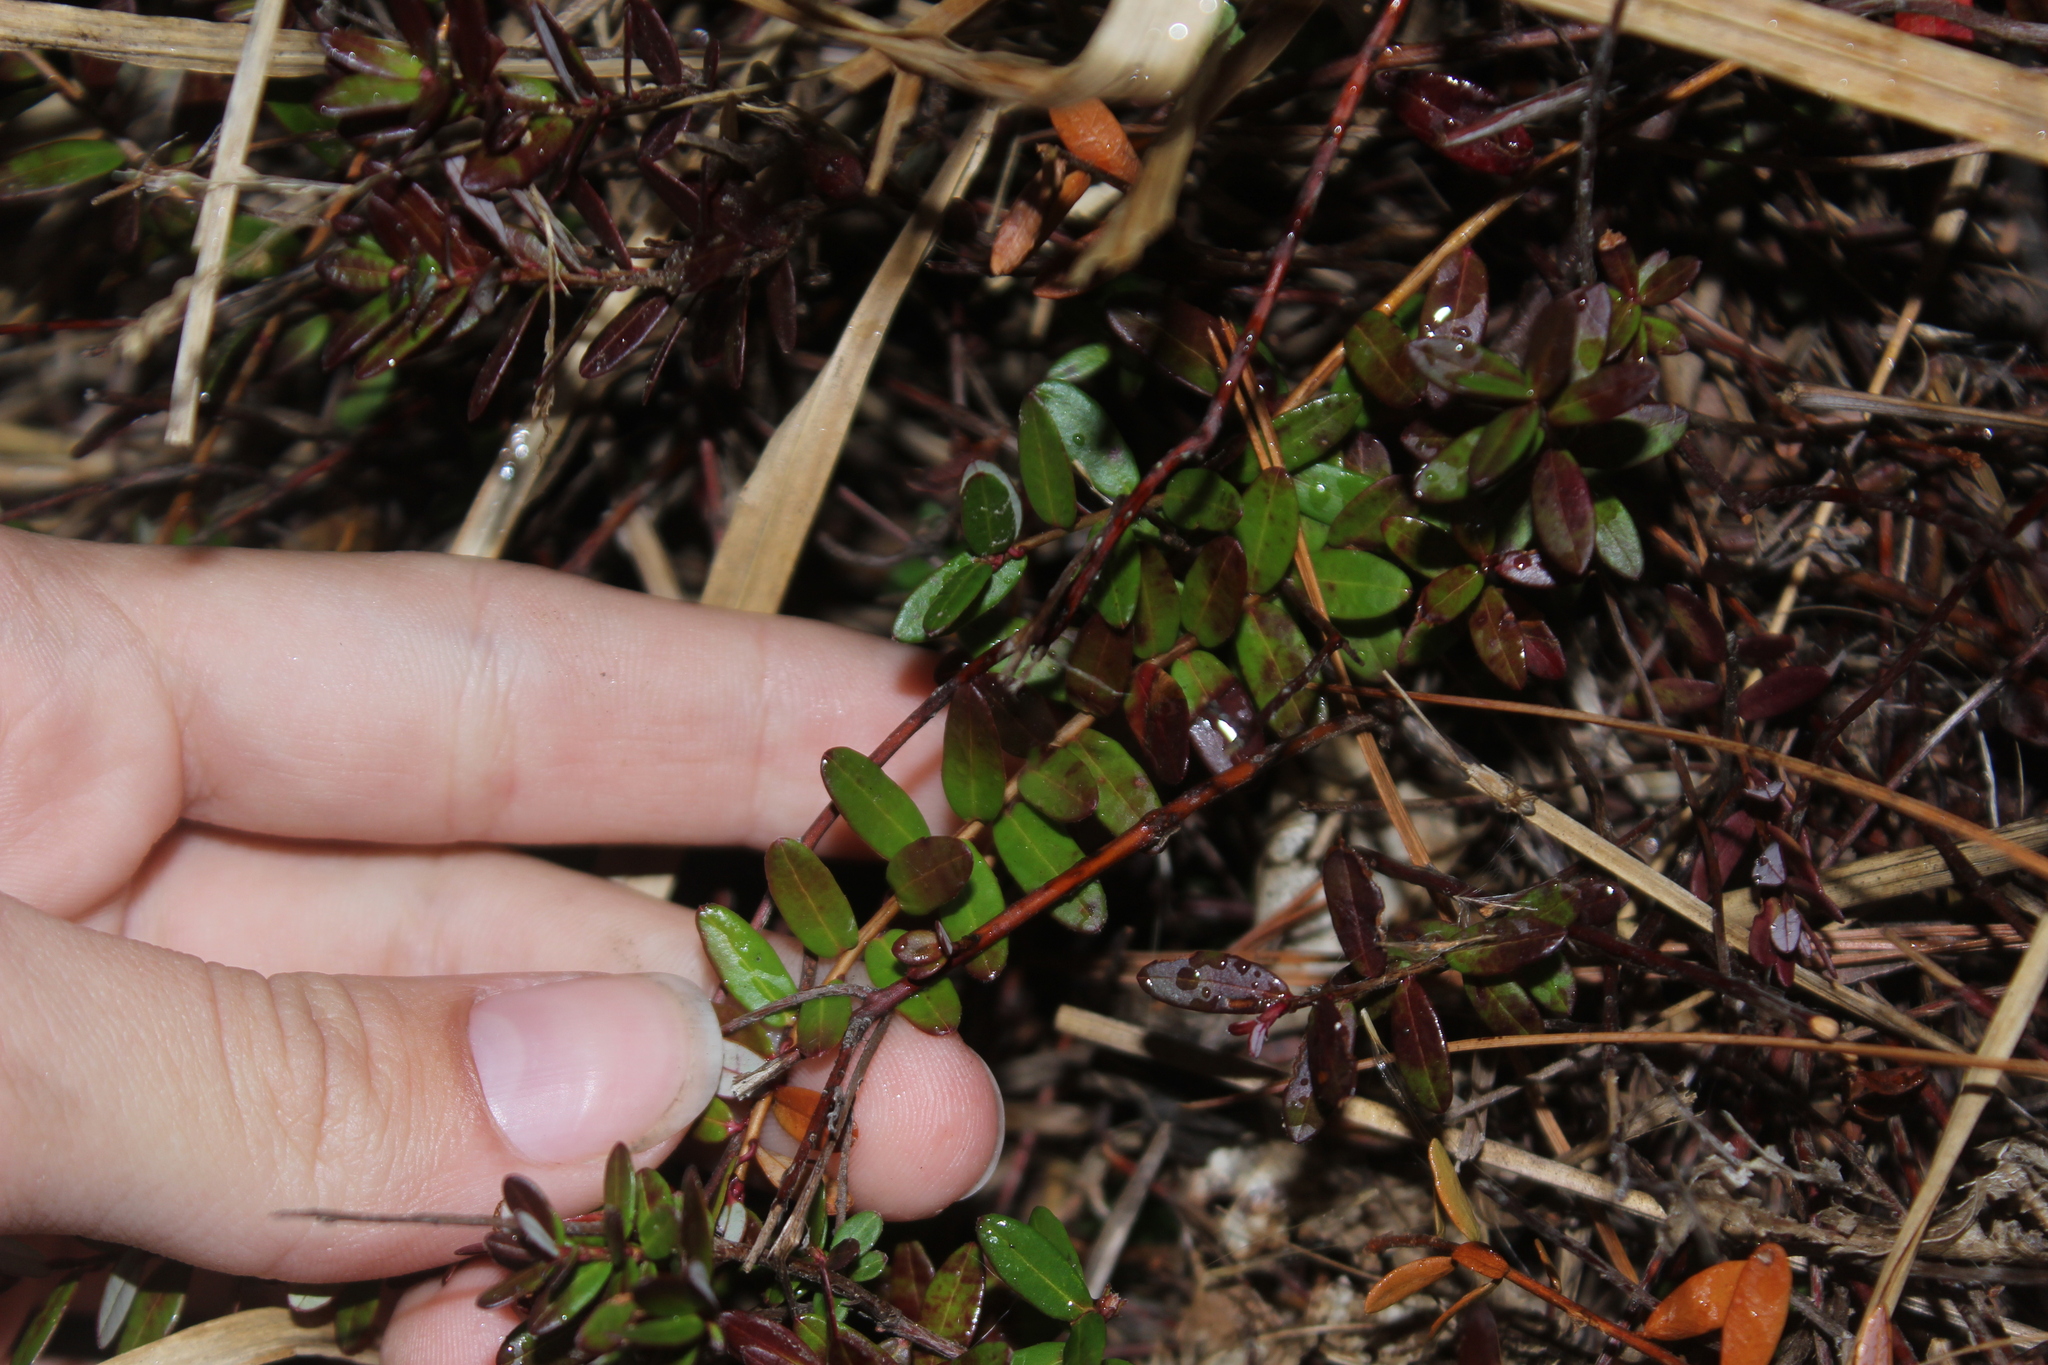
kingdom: Plantae
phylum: Tracheophyta
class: Magnoliopsida
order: Ericales
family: Ericaceae
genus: Vaccinium
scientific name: Vaccinium macrocarpon
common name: American cranberry
